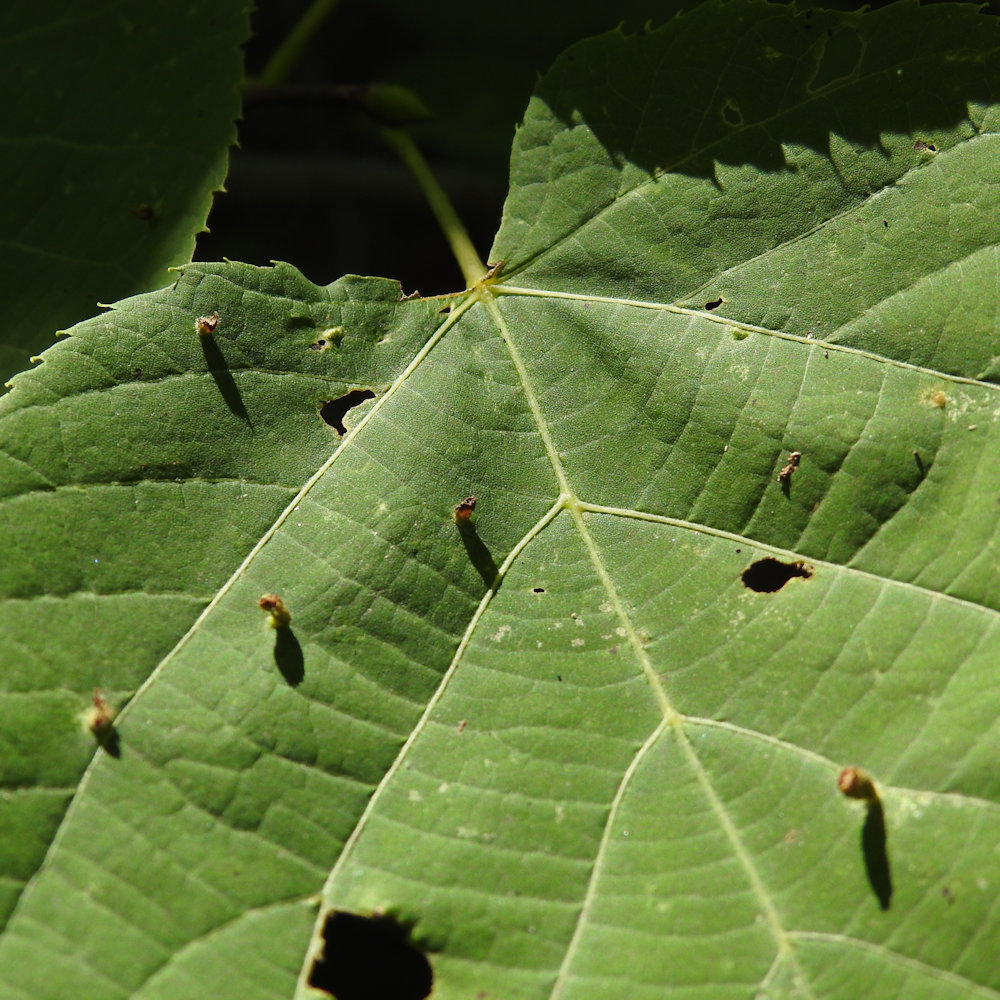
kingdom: Animalia
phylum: Arthropoda
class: Arachnida
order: Trombidiformes
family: Eriophyidae
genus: Eriophyes
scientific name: Eriophyes tiliae
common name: Red nail gall mite
